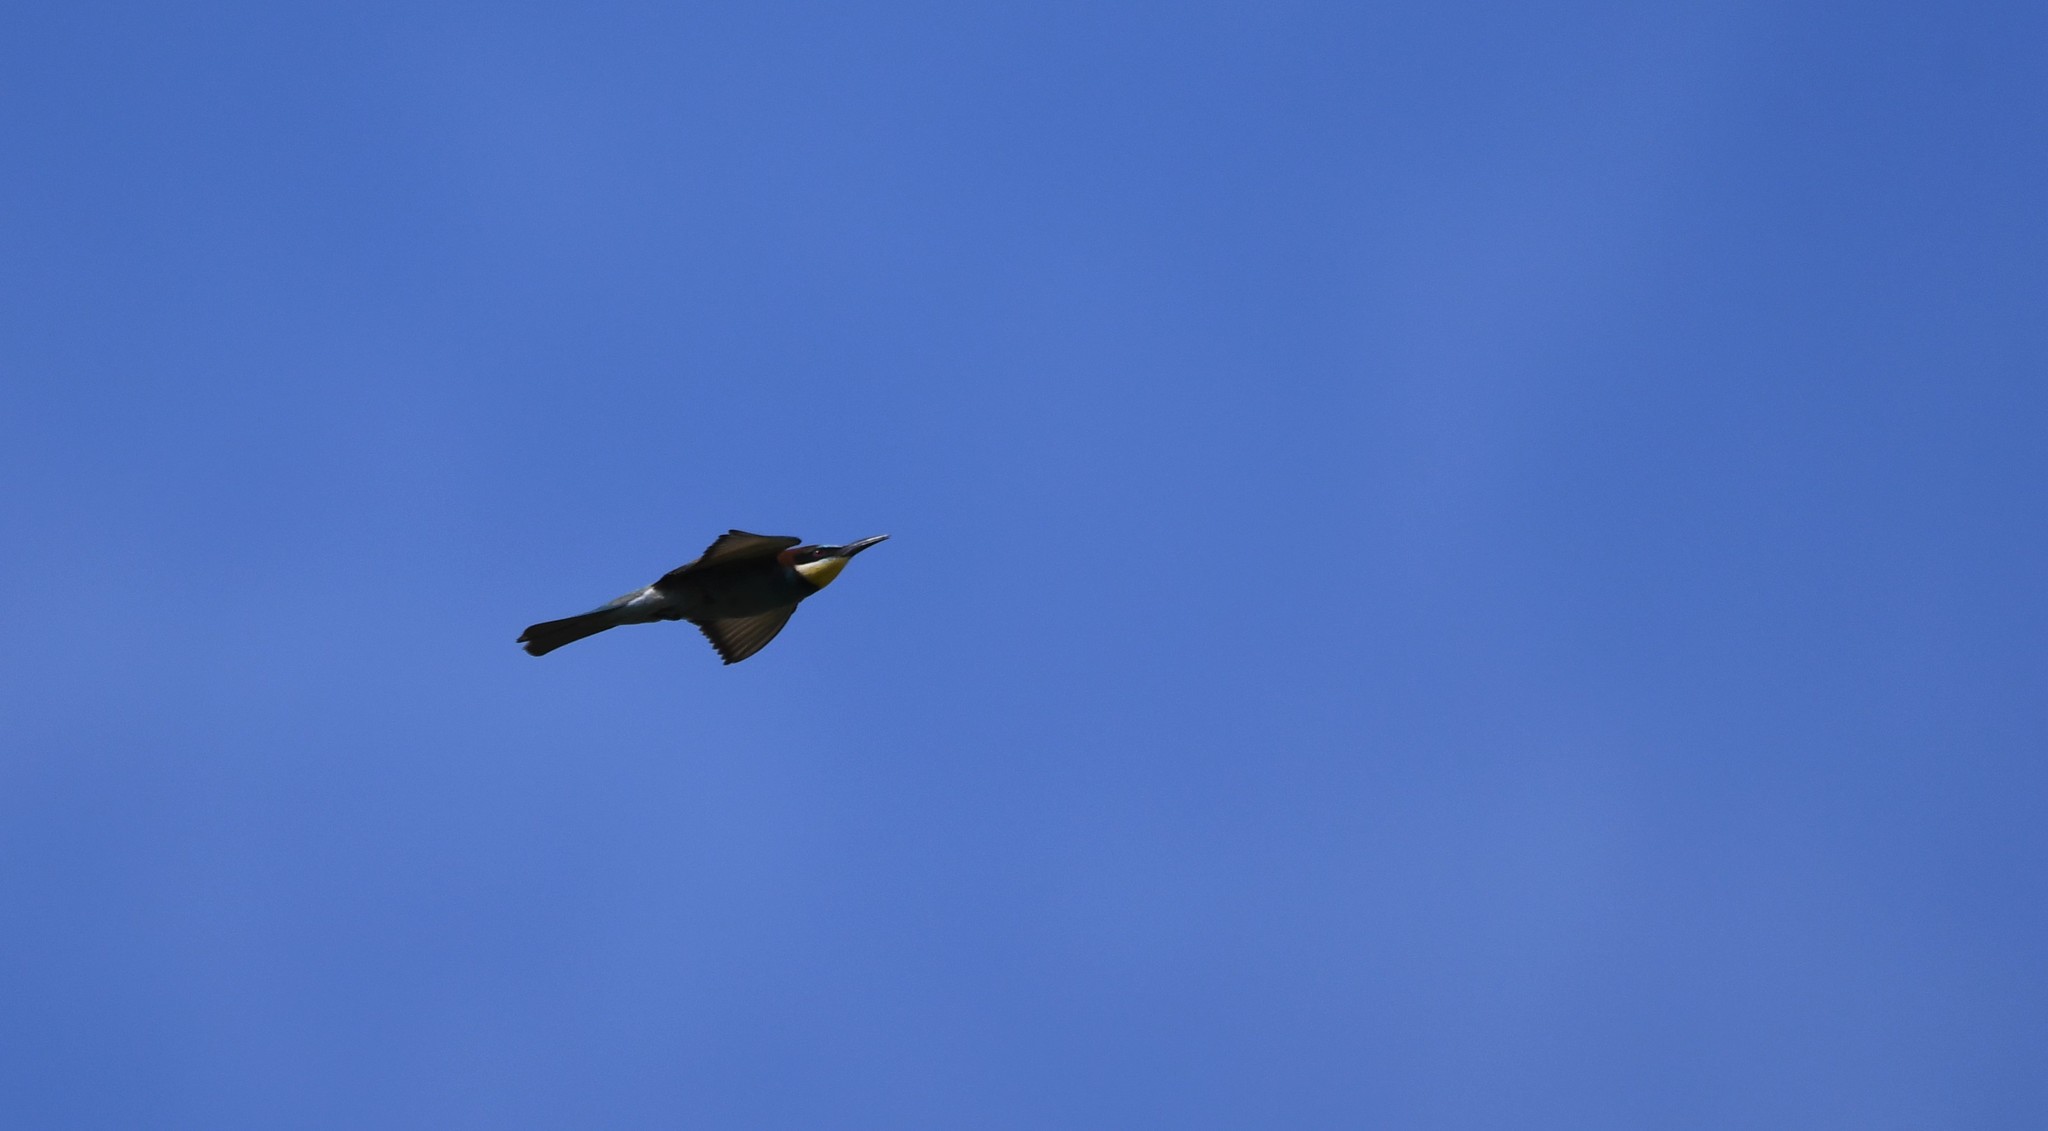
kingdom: Animalia
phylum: Chordata
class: Aves
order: Coraciiformes
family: Meropidae
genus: Merops
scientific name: Merops apiaster
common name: European bee-eater
